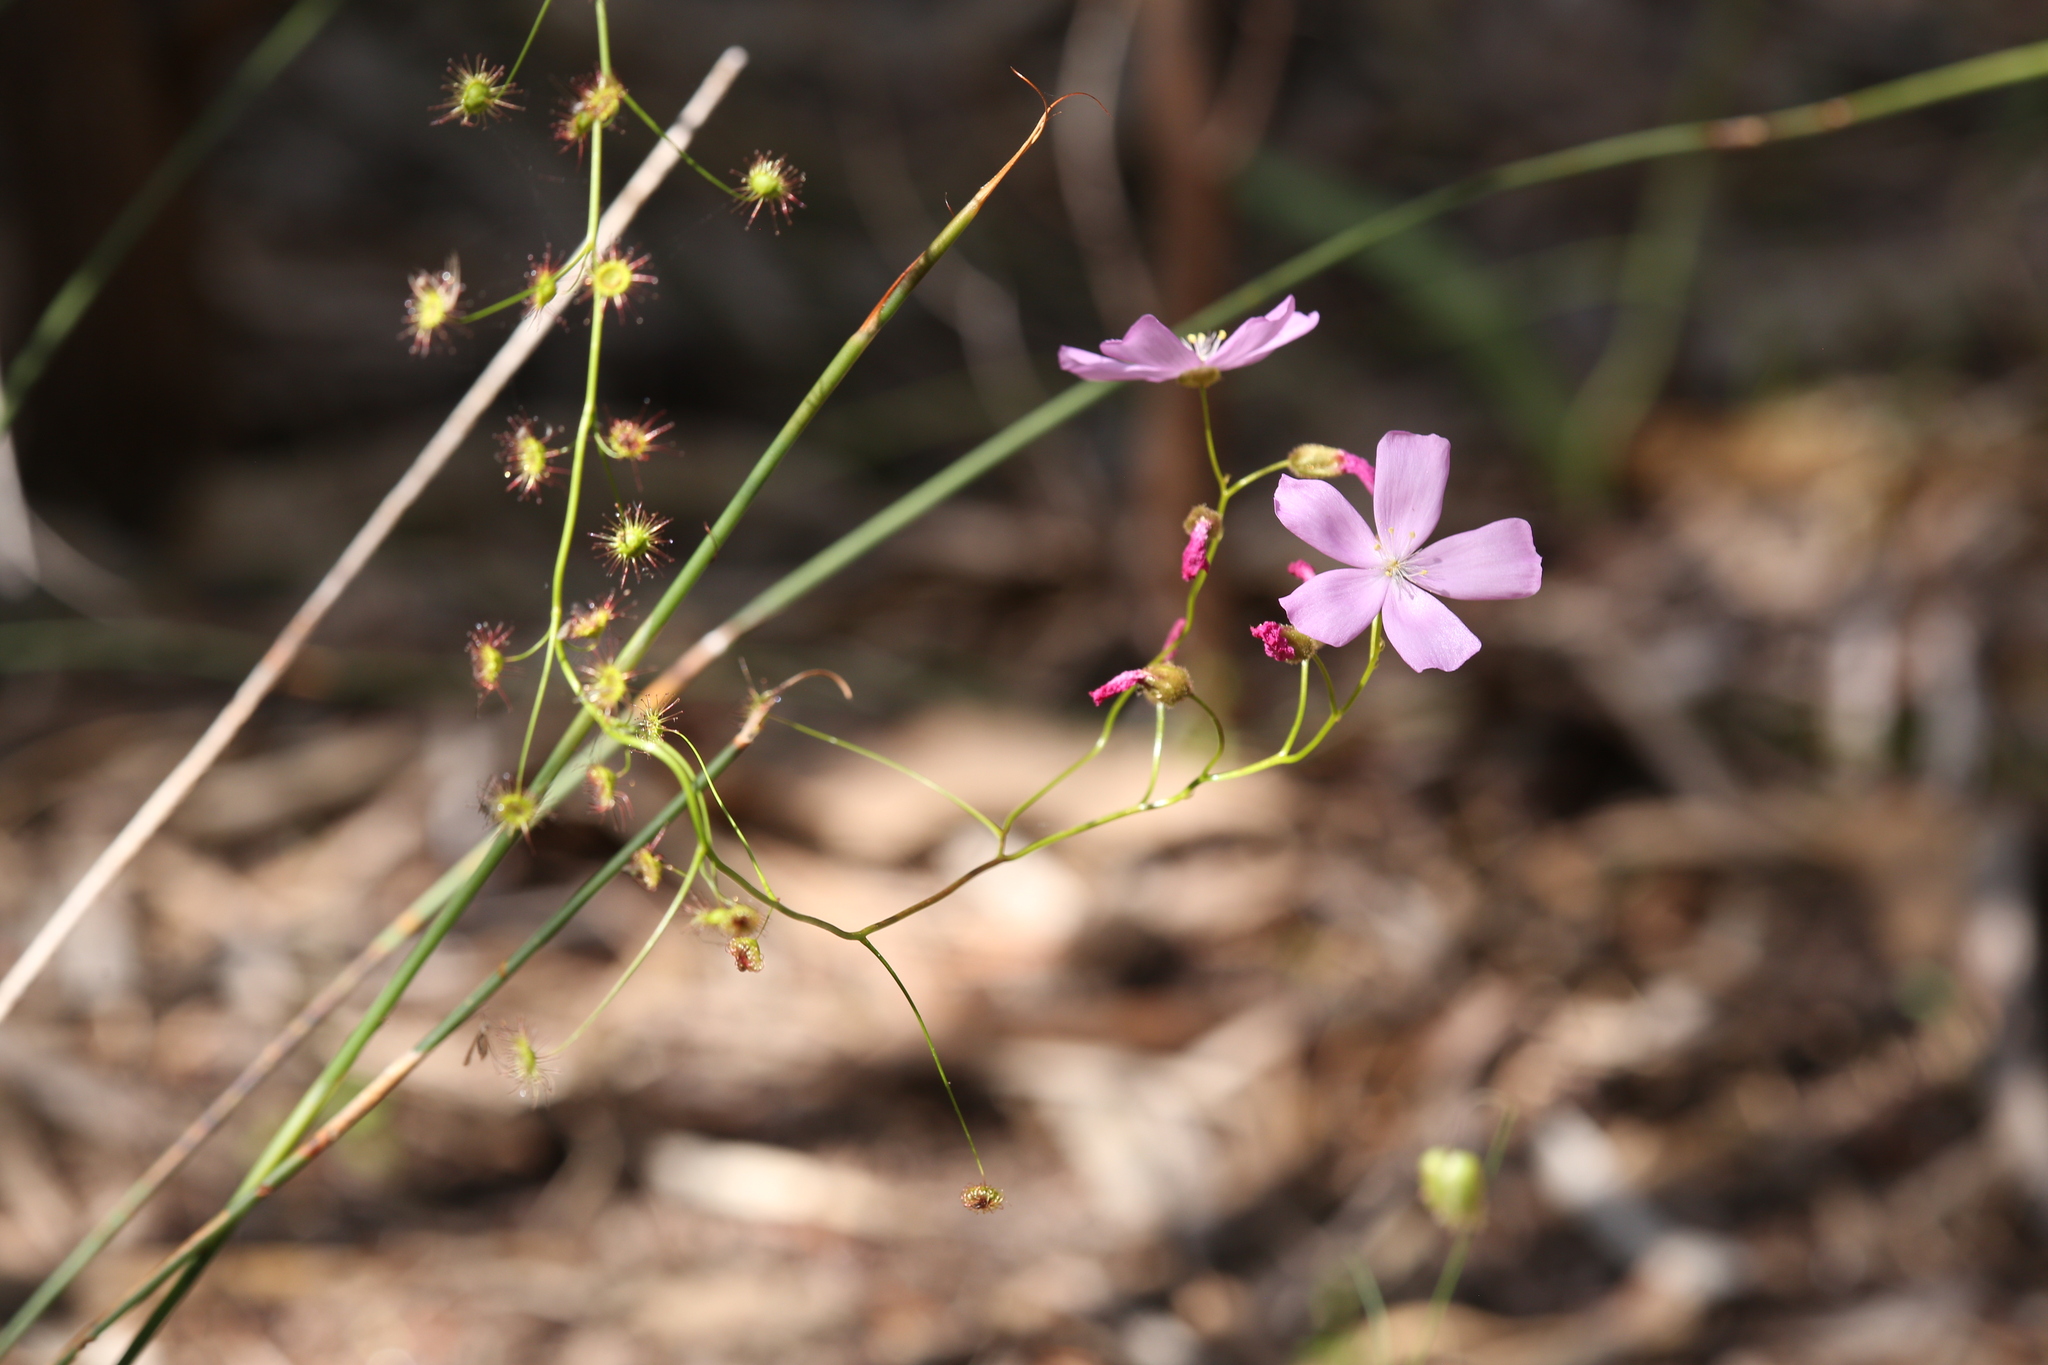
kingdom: Plantae
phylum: Tracheophyta
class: Magnoliopsida
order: Caryophyllales
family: Droseraceae
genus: Drosera
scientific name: Drosera
